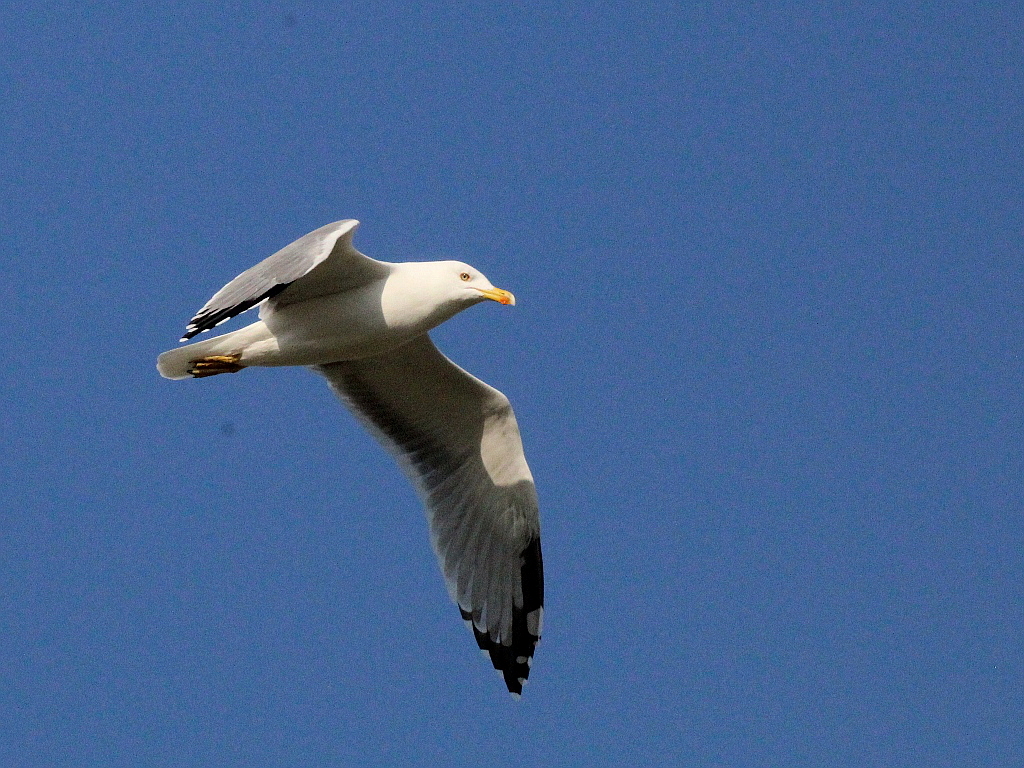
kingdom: Animalia
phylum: Chordata
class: Aves
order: Charadriiformes
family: Laridae
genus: Larus
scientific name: Larus michahellis
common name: Yellow-legged gull
